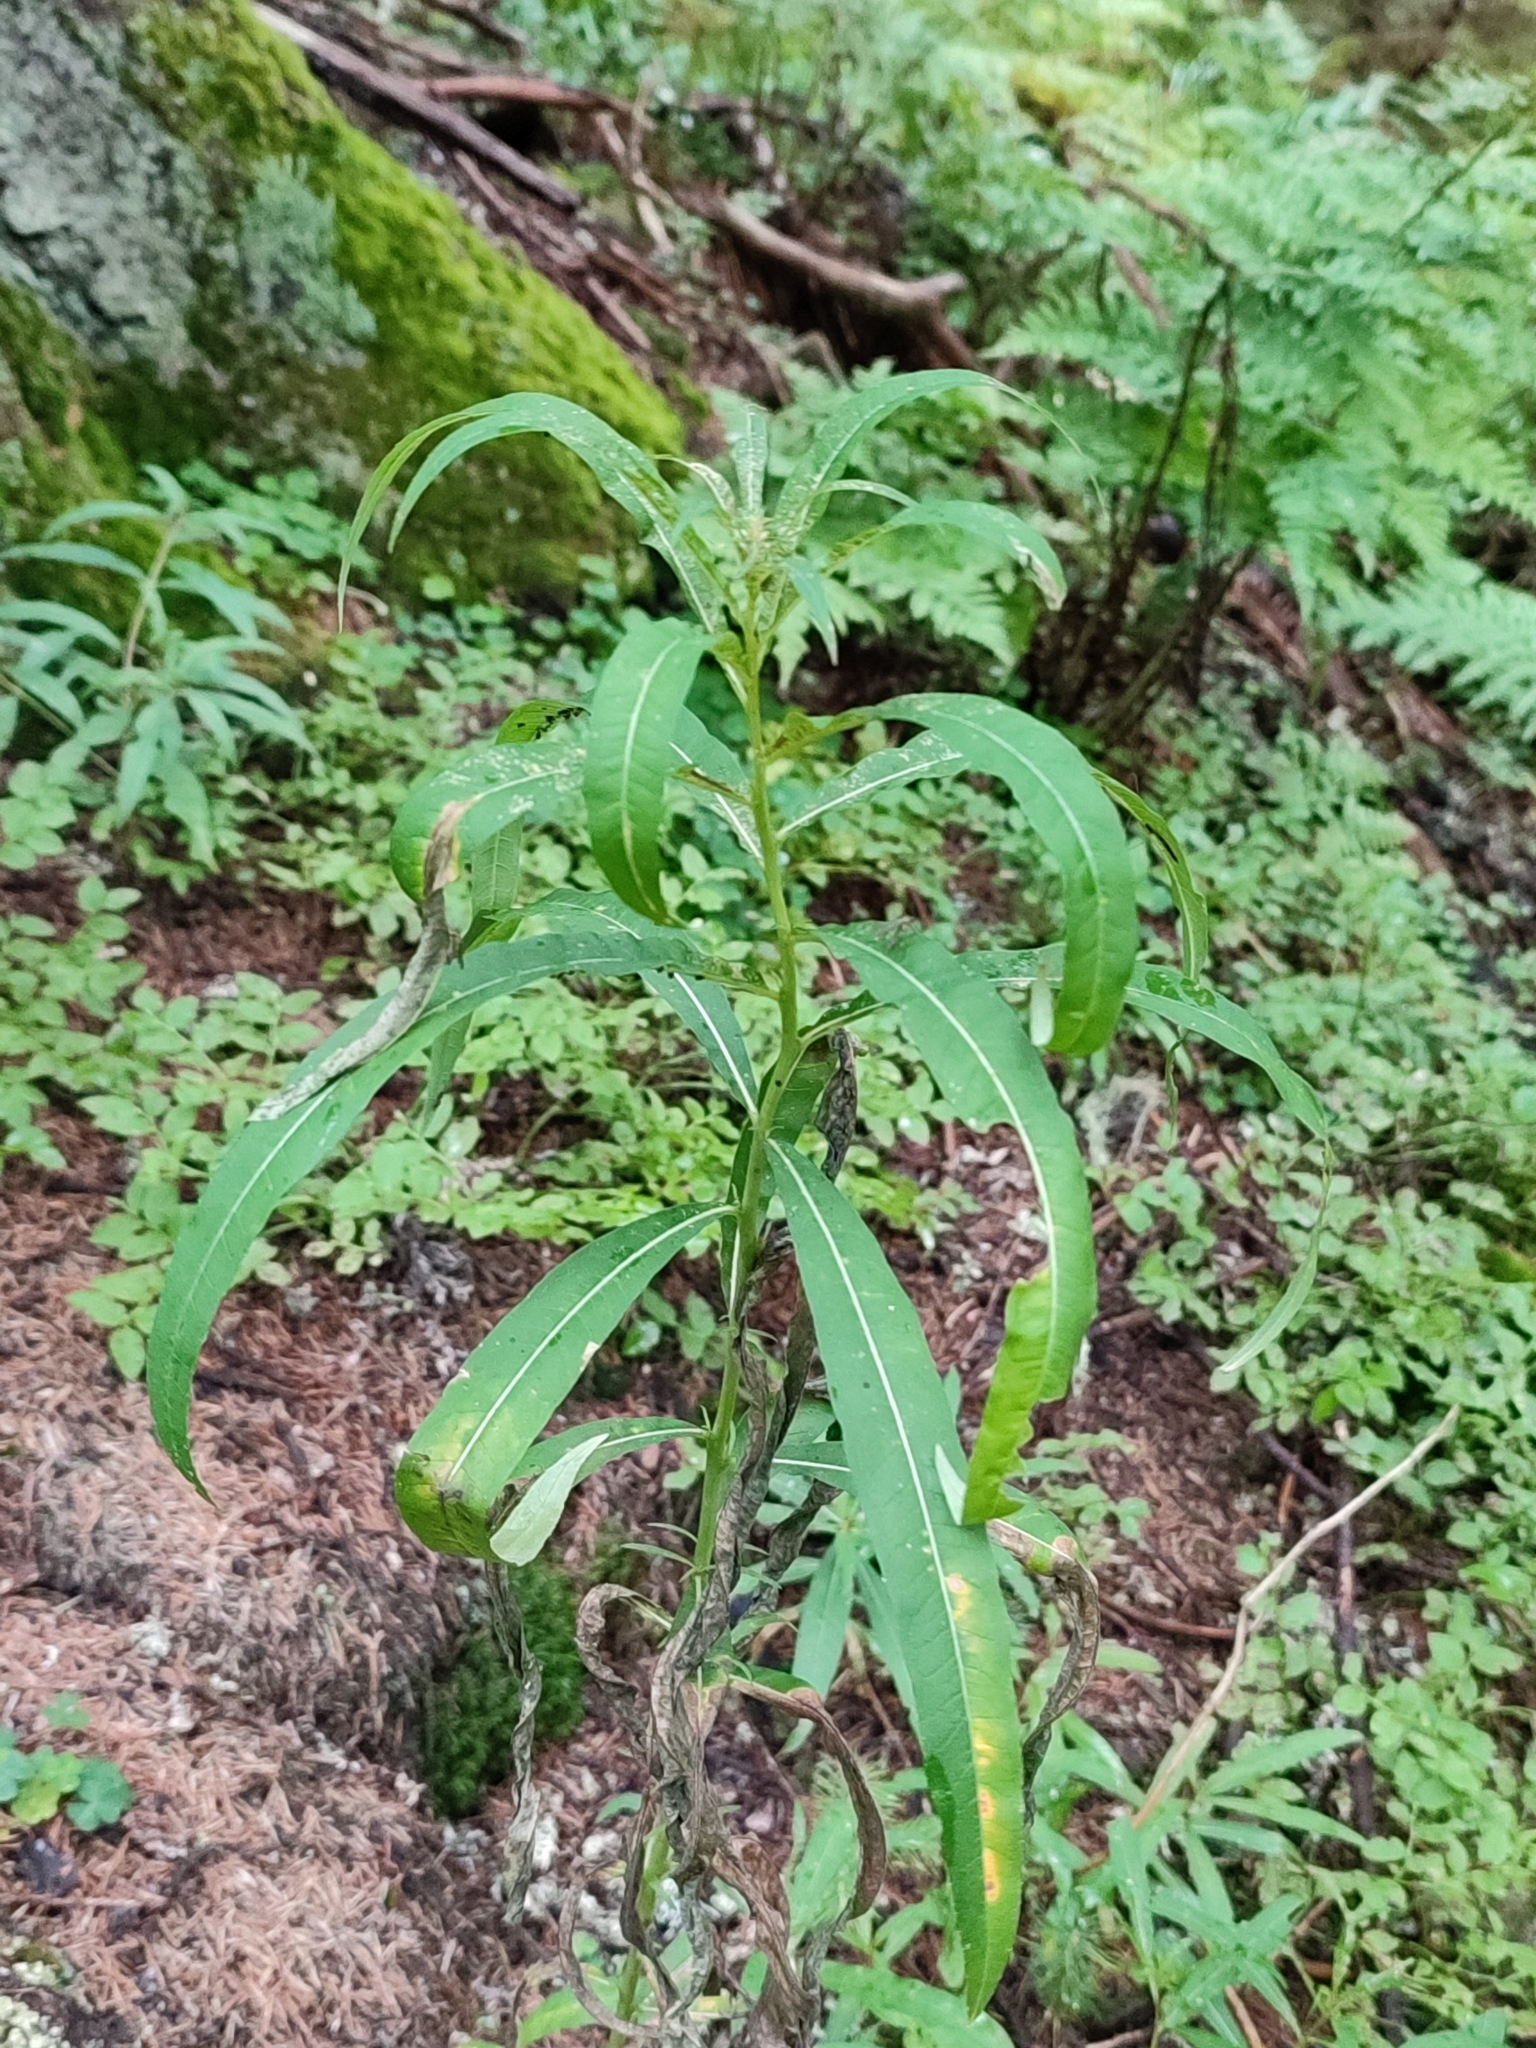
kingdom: Plantae
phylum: Tracheophyta
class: Magnoliopsida
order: Myrtales
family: Onagraceae
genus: Chamaenerion
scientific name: Chamaenerion angustifolium
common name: Fireweed
